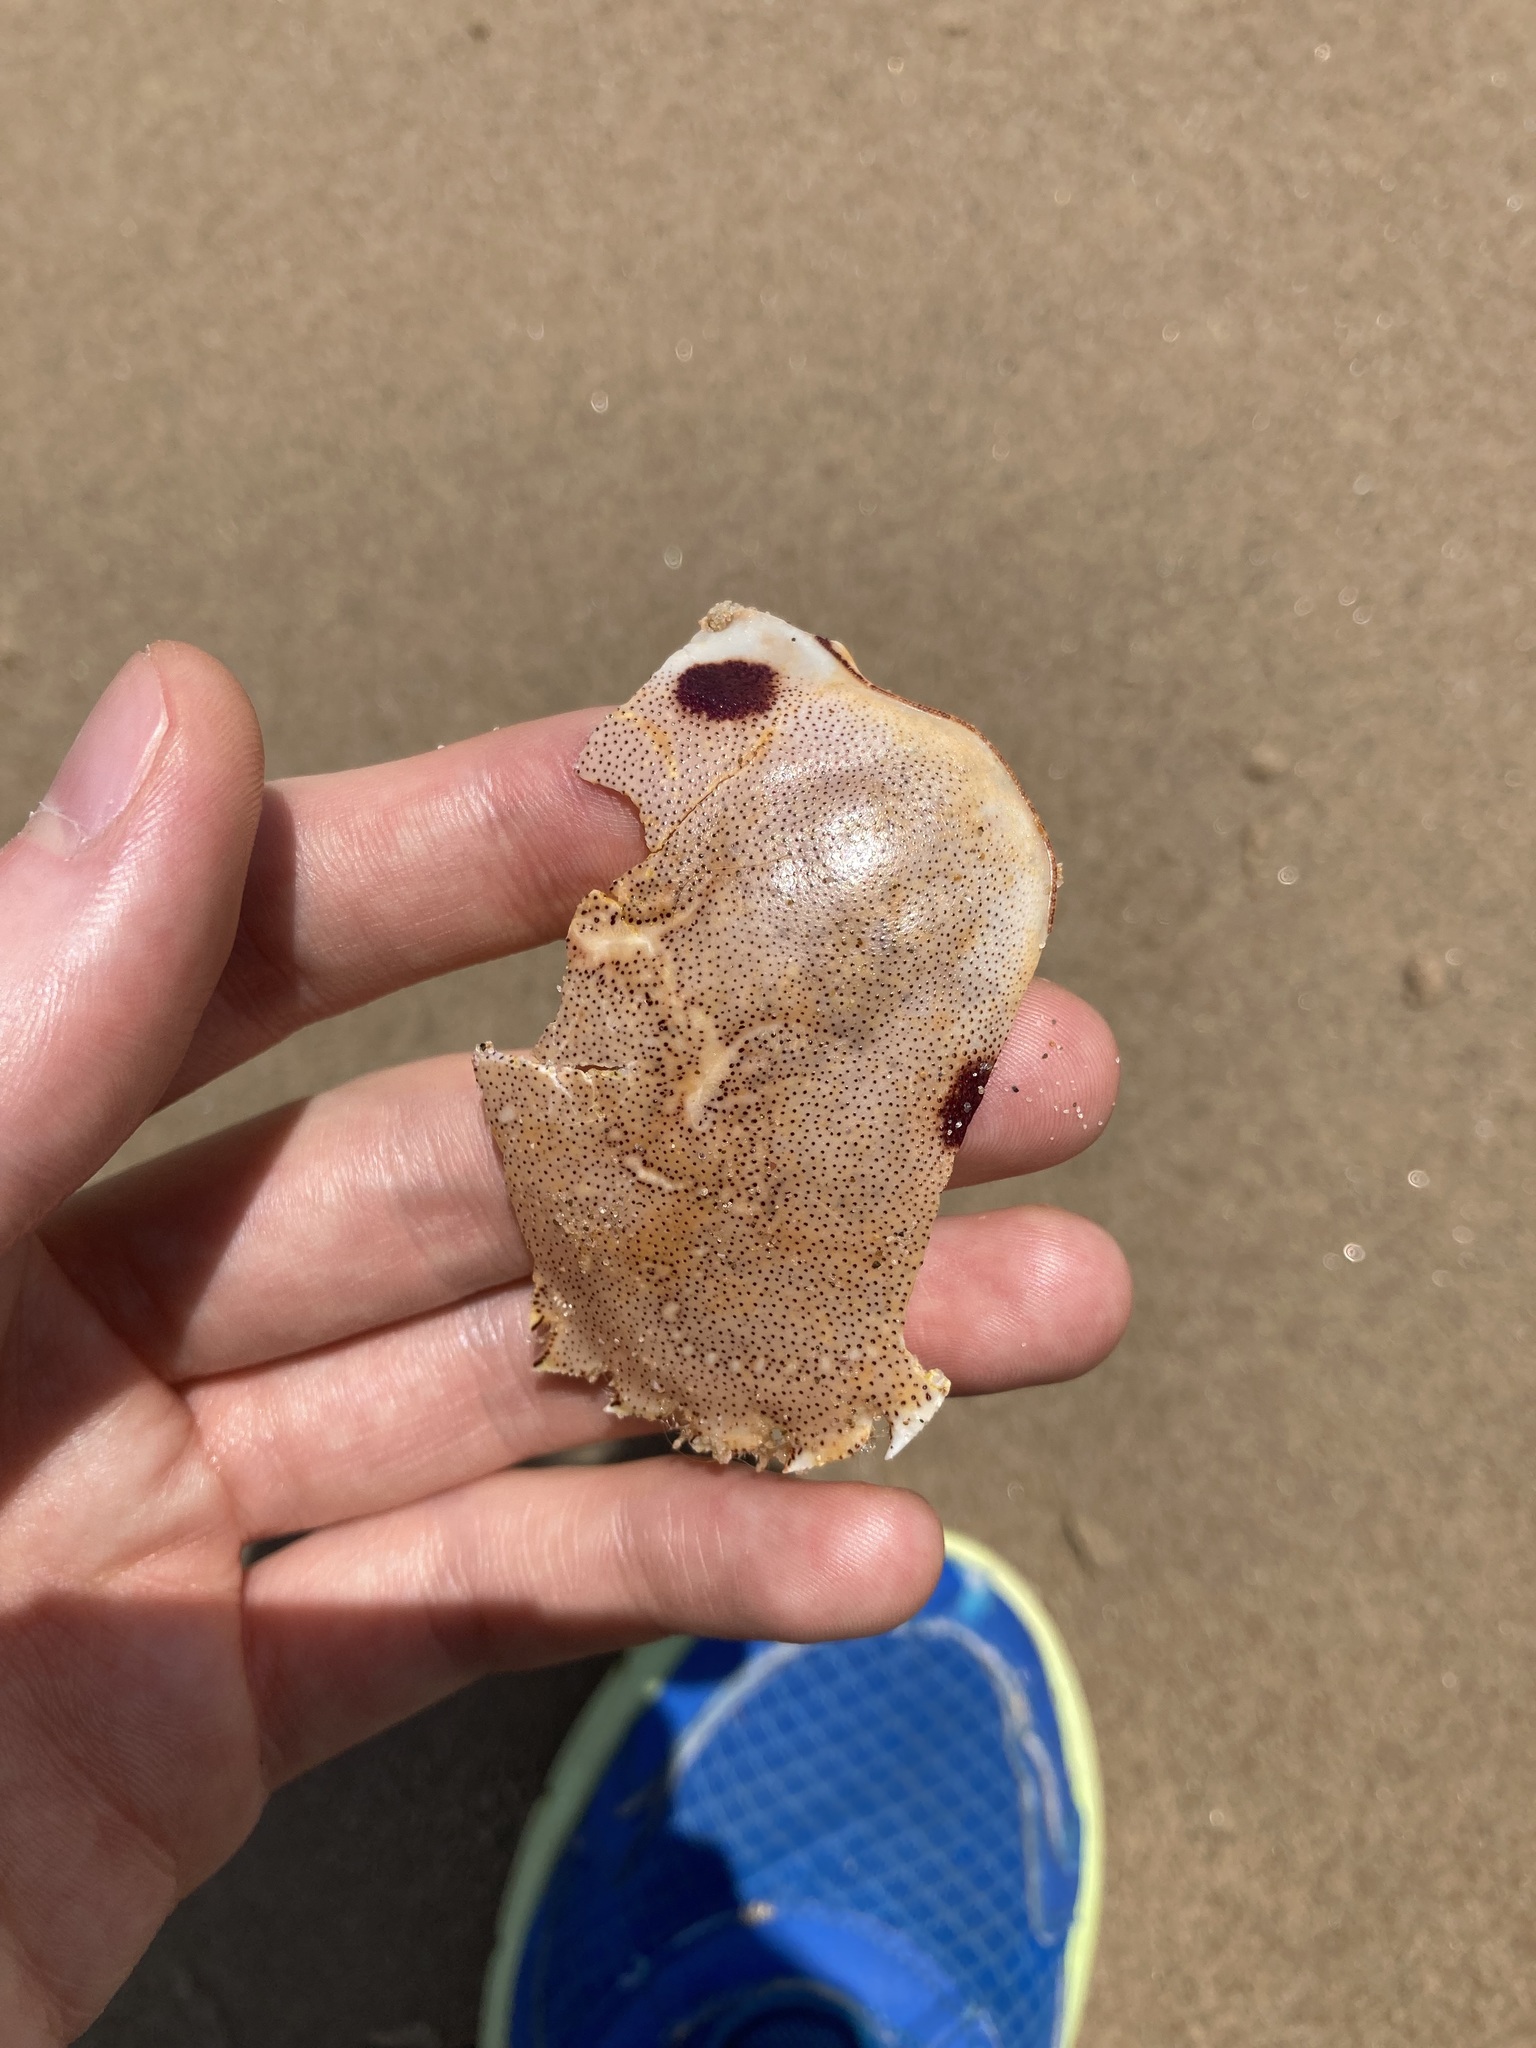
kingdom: Animalia
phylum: Arthropoda
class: Malacostraca
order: Decapoda
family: Ovalipidae
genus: Ovalipes
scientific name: Ovalipes australiensis
